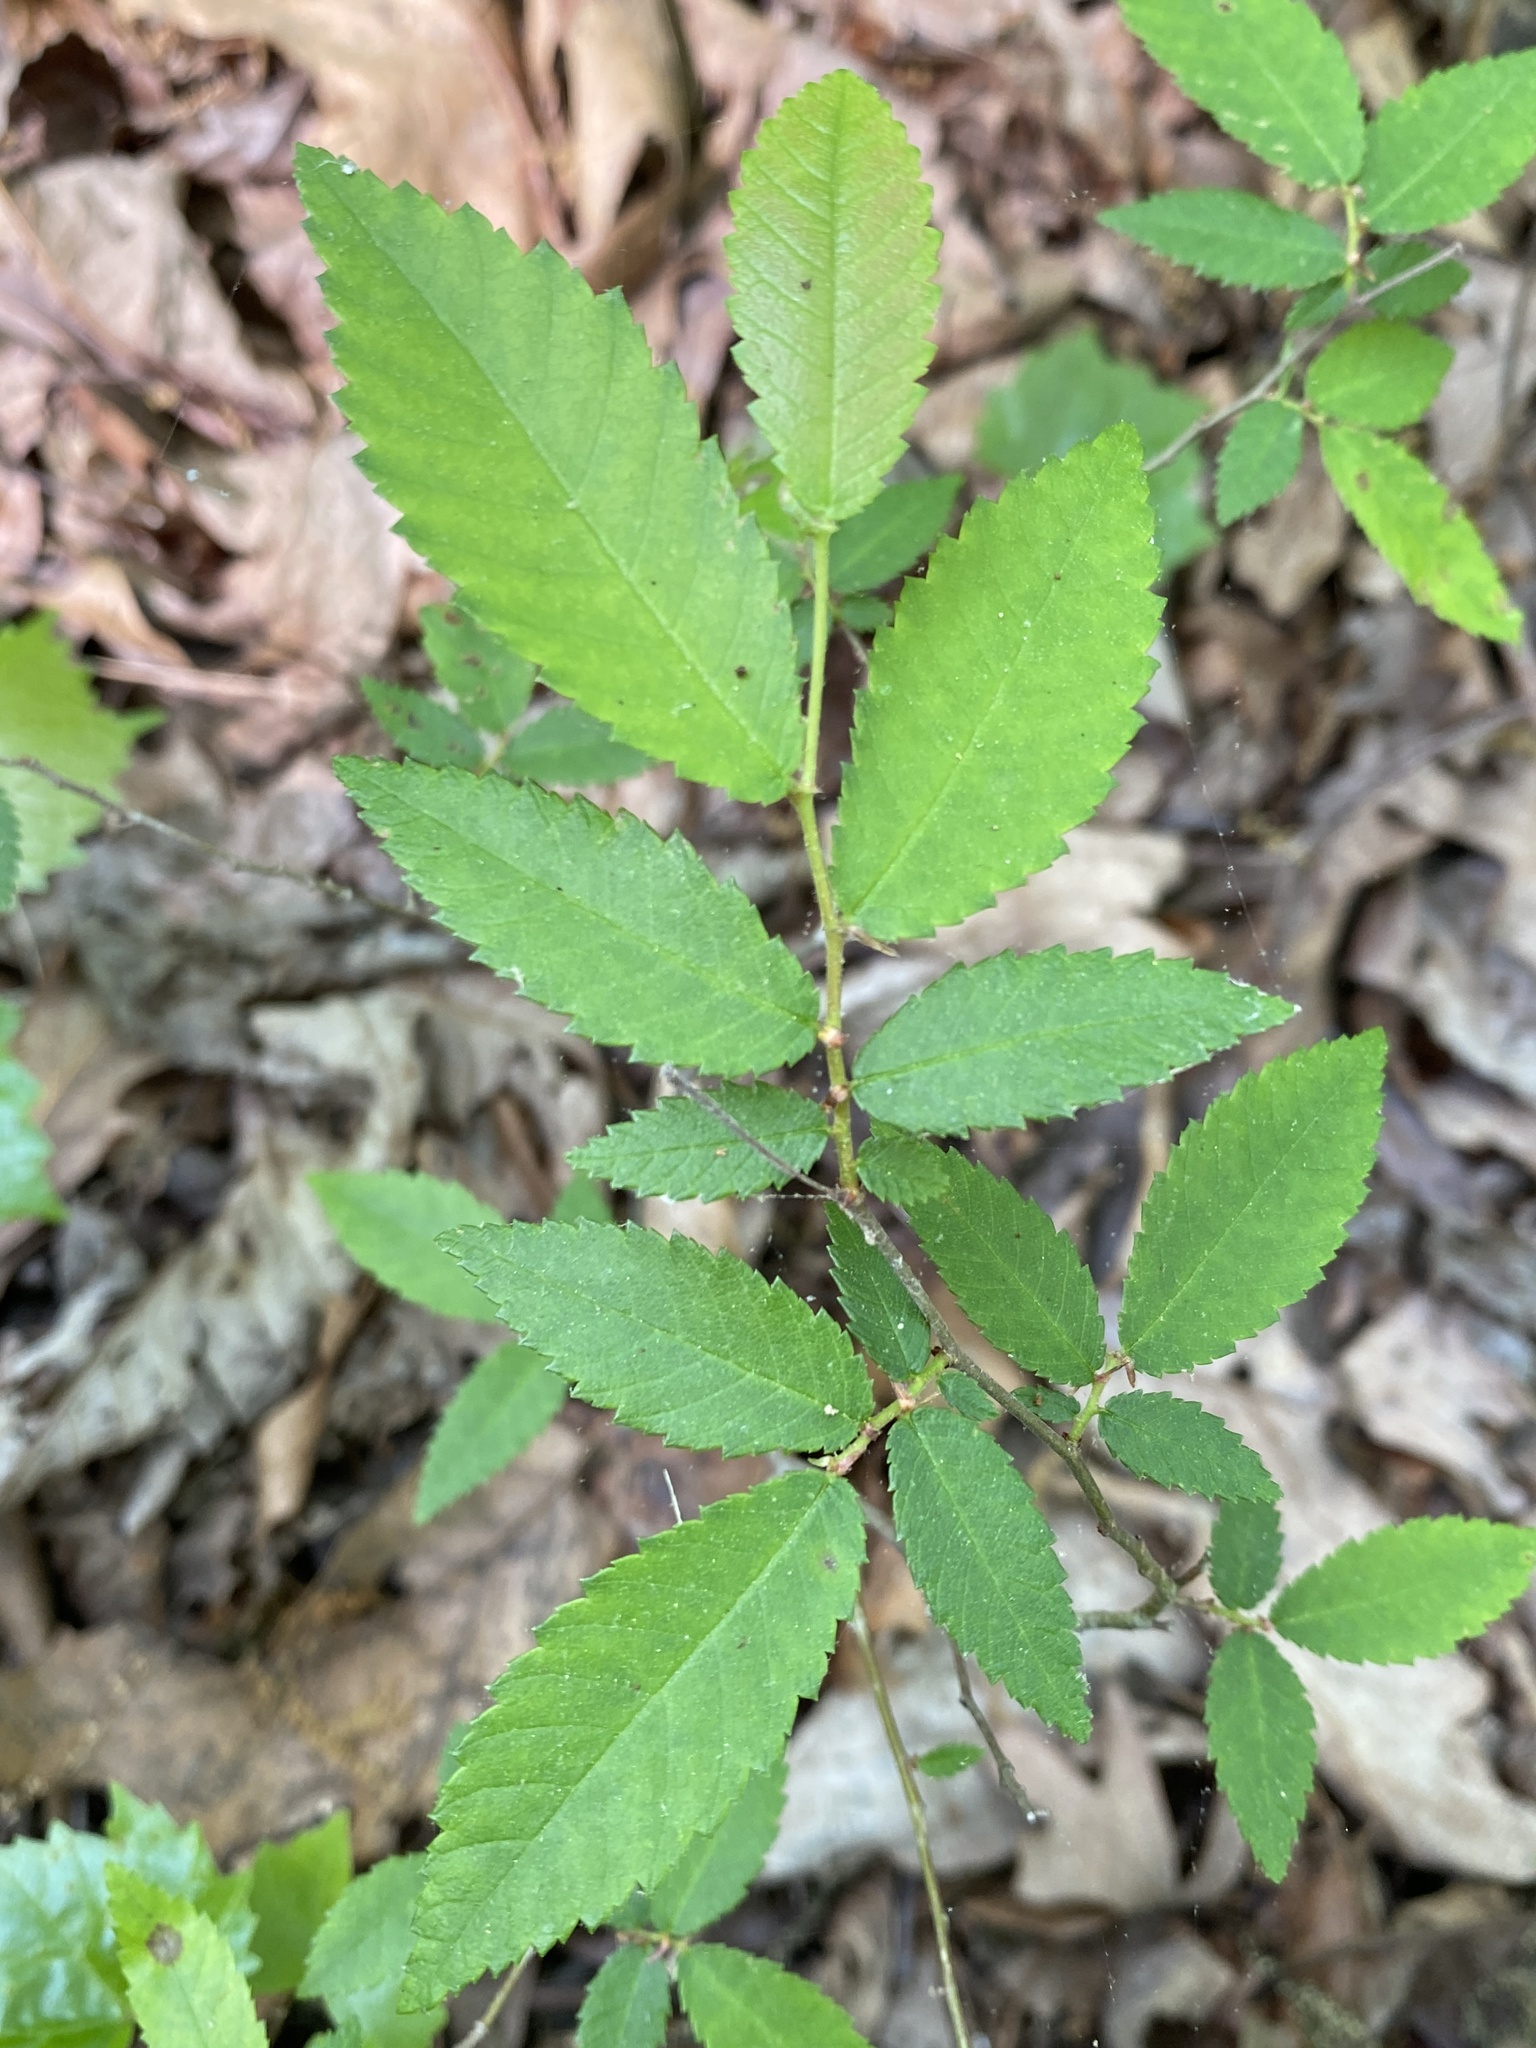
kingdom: Plantae
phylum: Tracheophyta
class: Magnoliopsida
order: Rosales
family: Ulmaceae
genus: Ulmus
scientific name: Ulmus alata
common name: Winged elm
